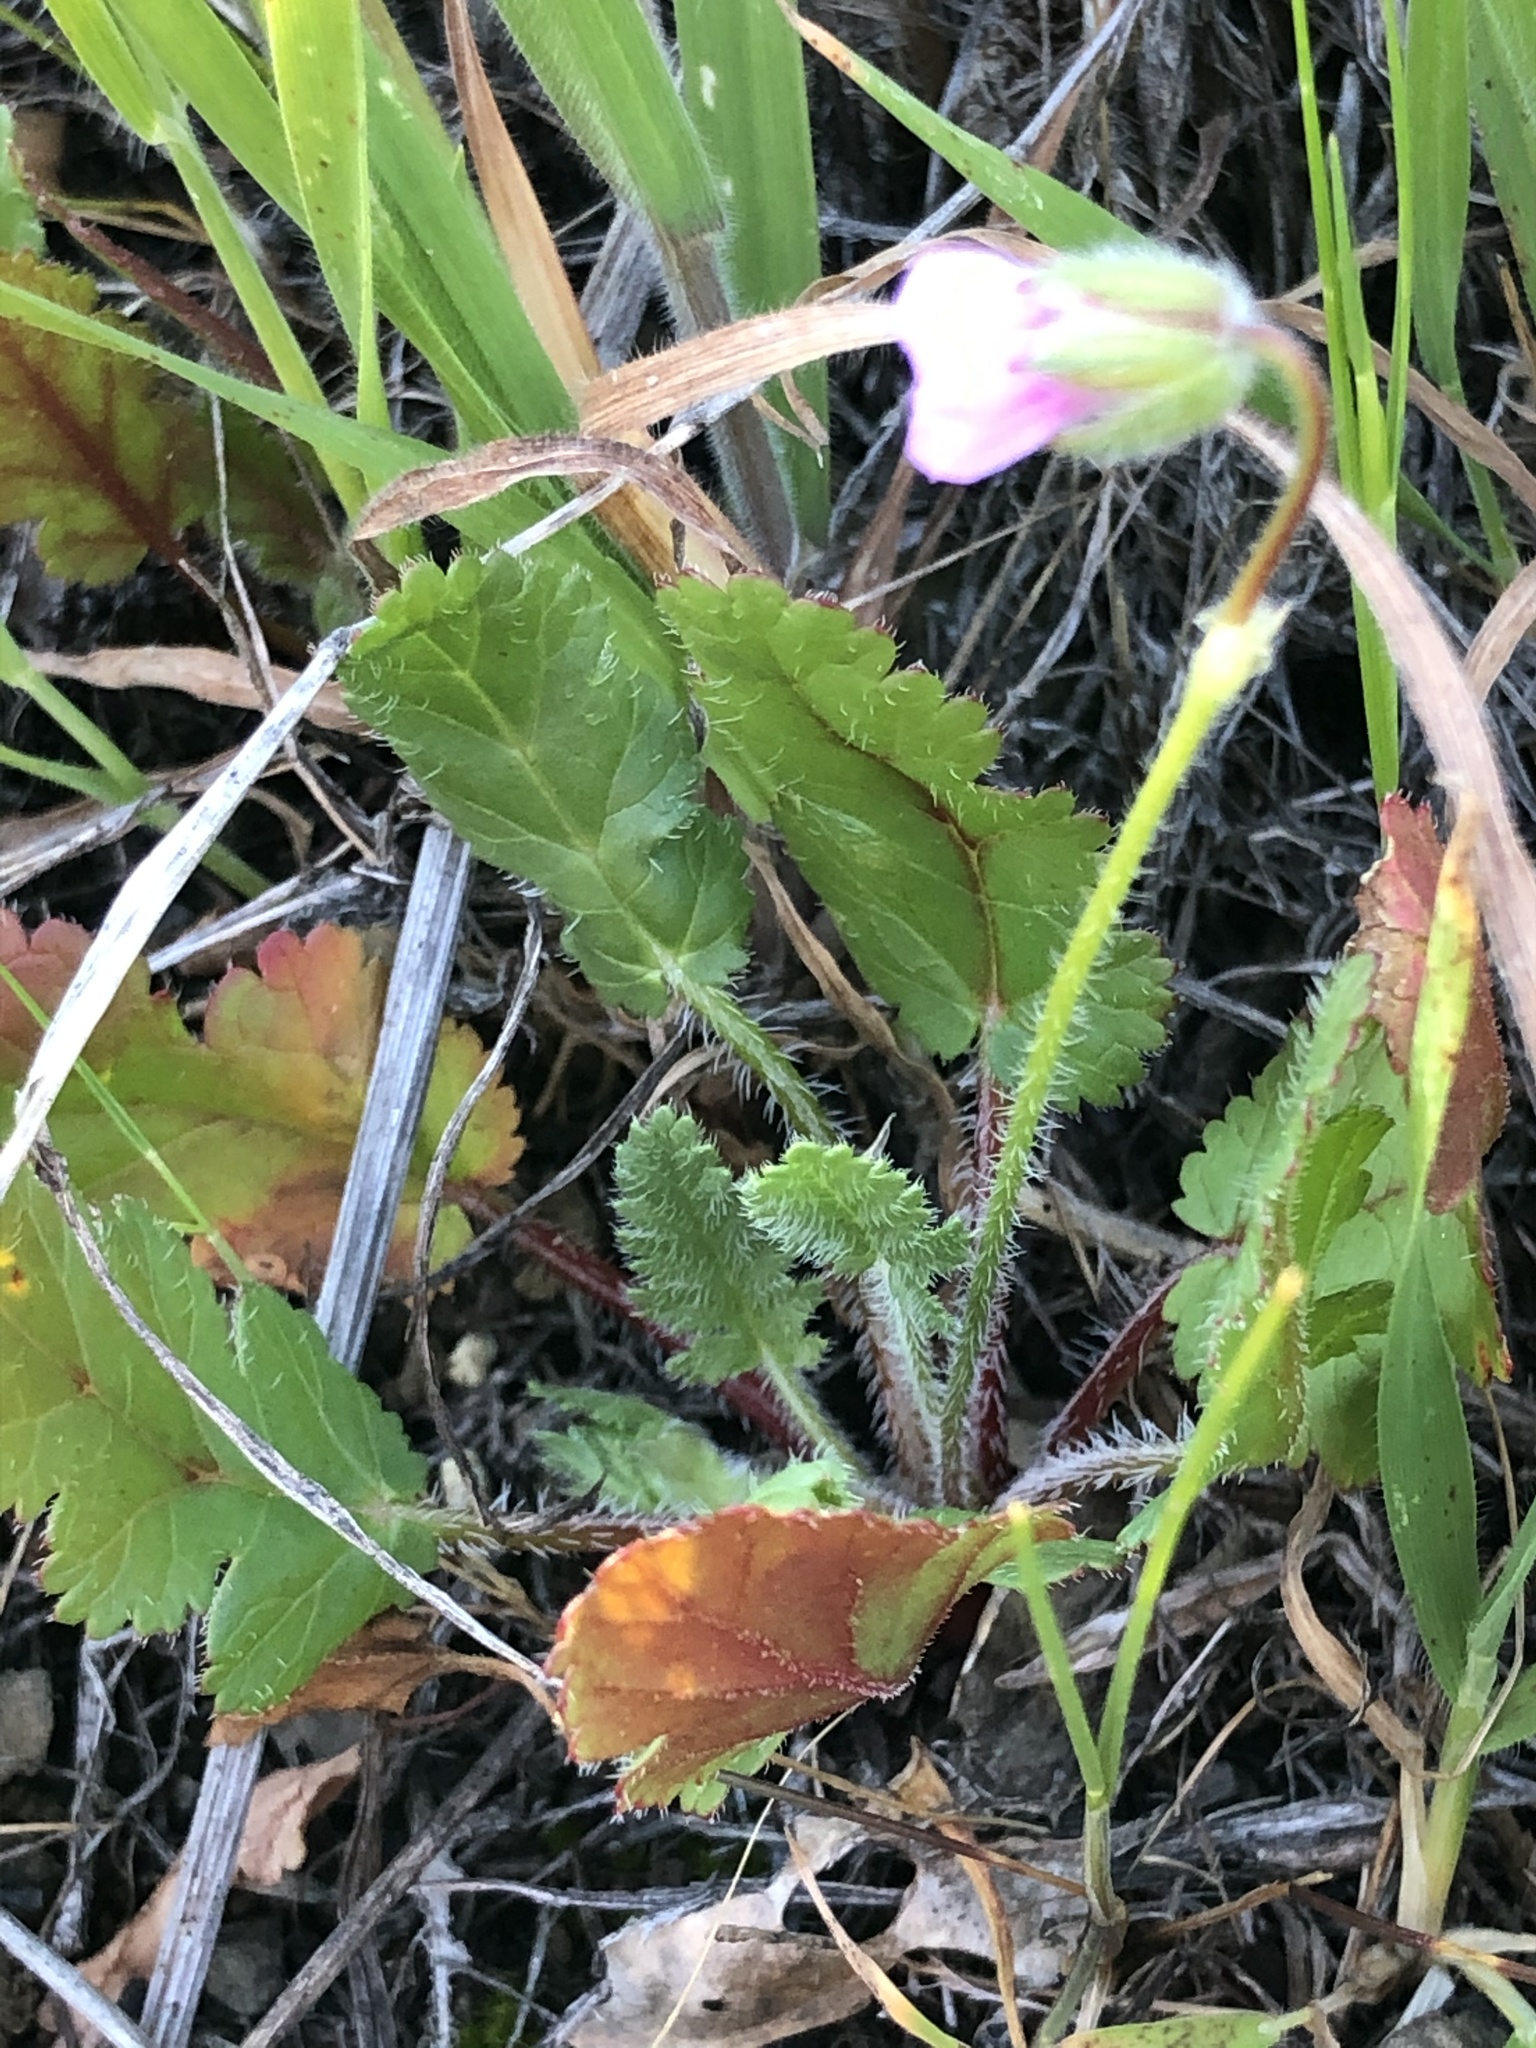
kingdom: Plantae
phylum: Tracheophyta
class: Magnoliopsida
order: Geraniales
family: Geraniaceae
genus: Erodium
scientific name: Erodium botrys
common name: Mediterranean stork's-bill
